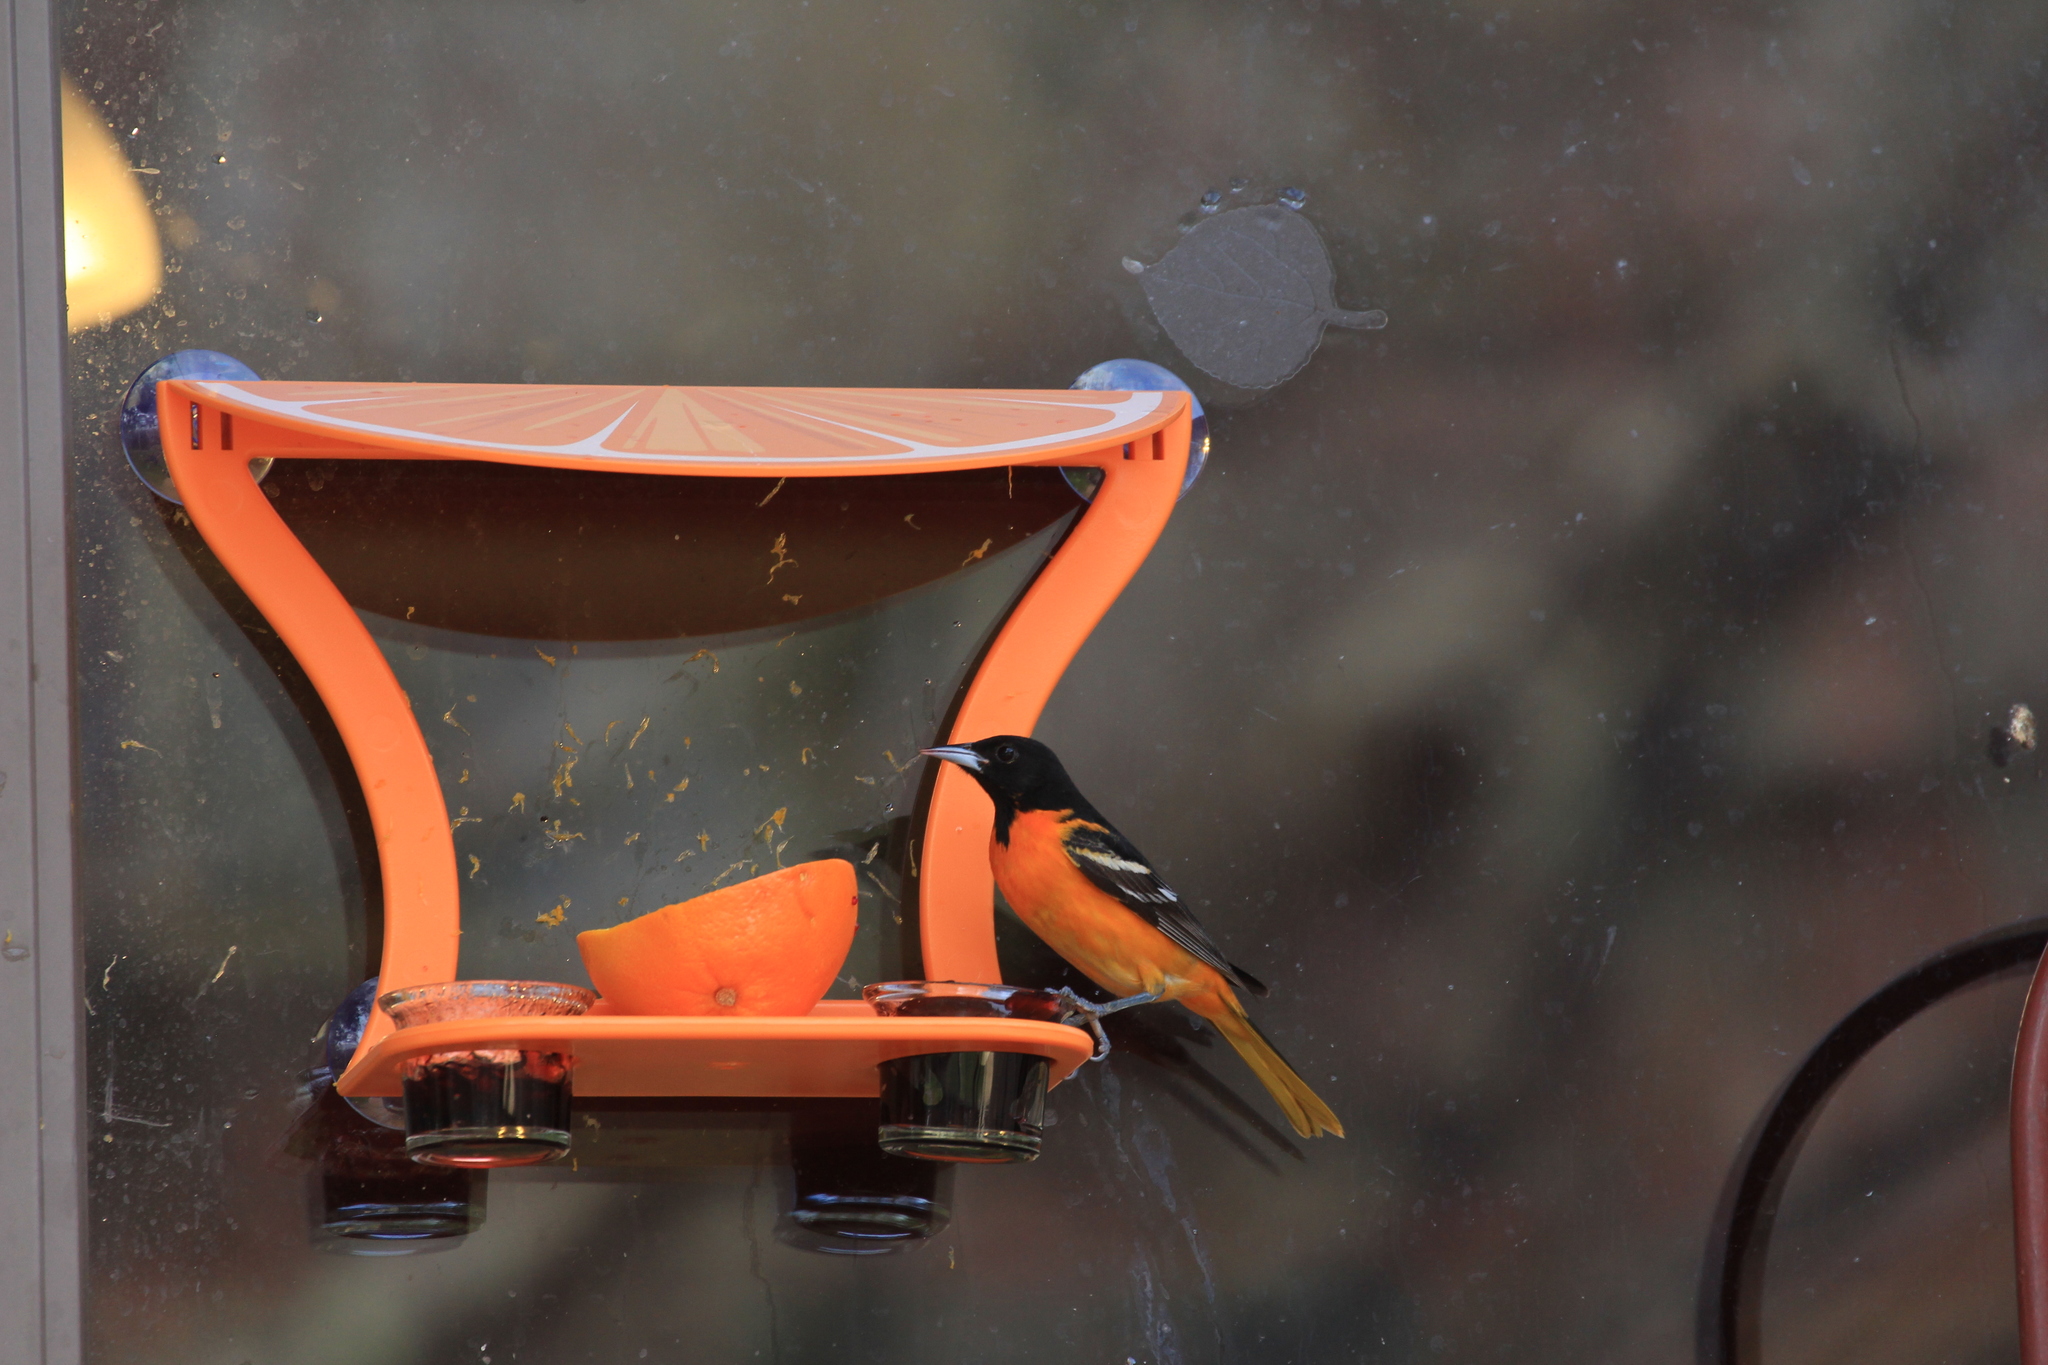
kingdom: Animalia
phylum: Chordata
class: Aves
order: Passeriformes
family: Icteridae
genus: Icterus
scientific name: Icterus galbula
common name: Baltimore oriole
